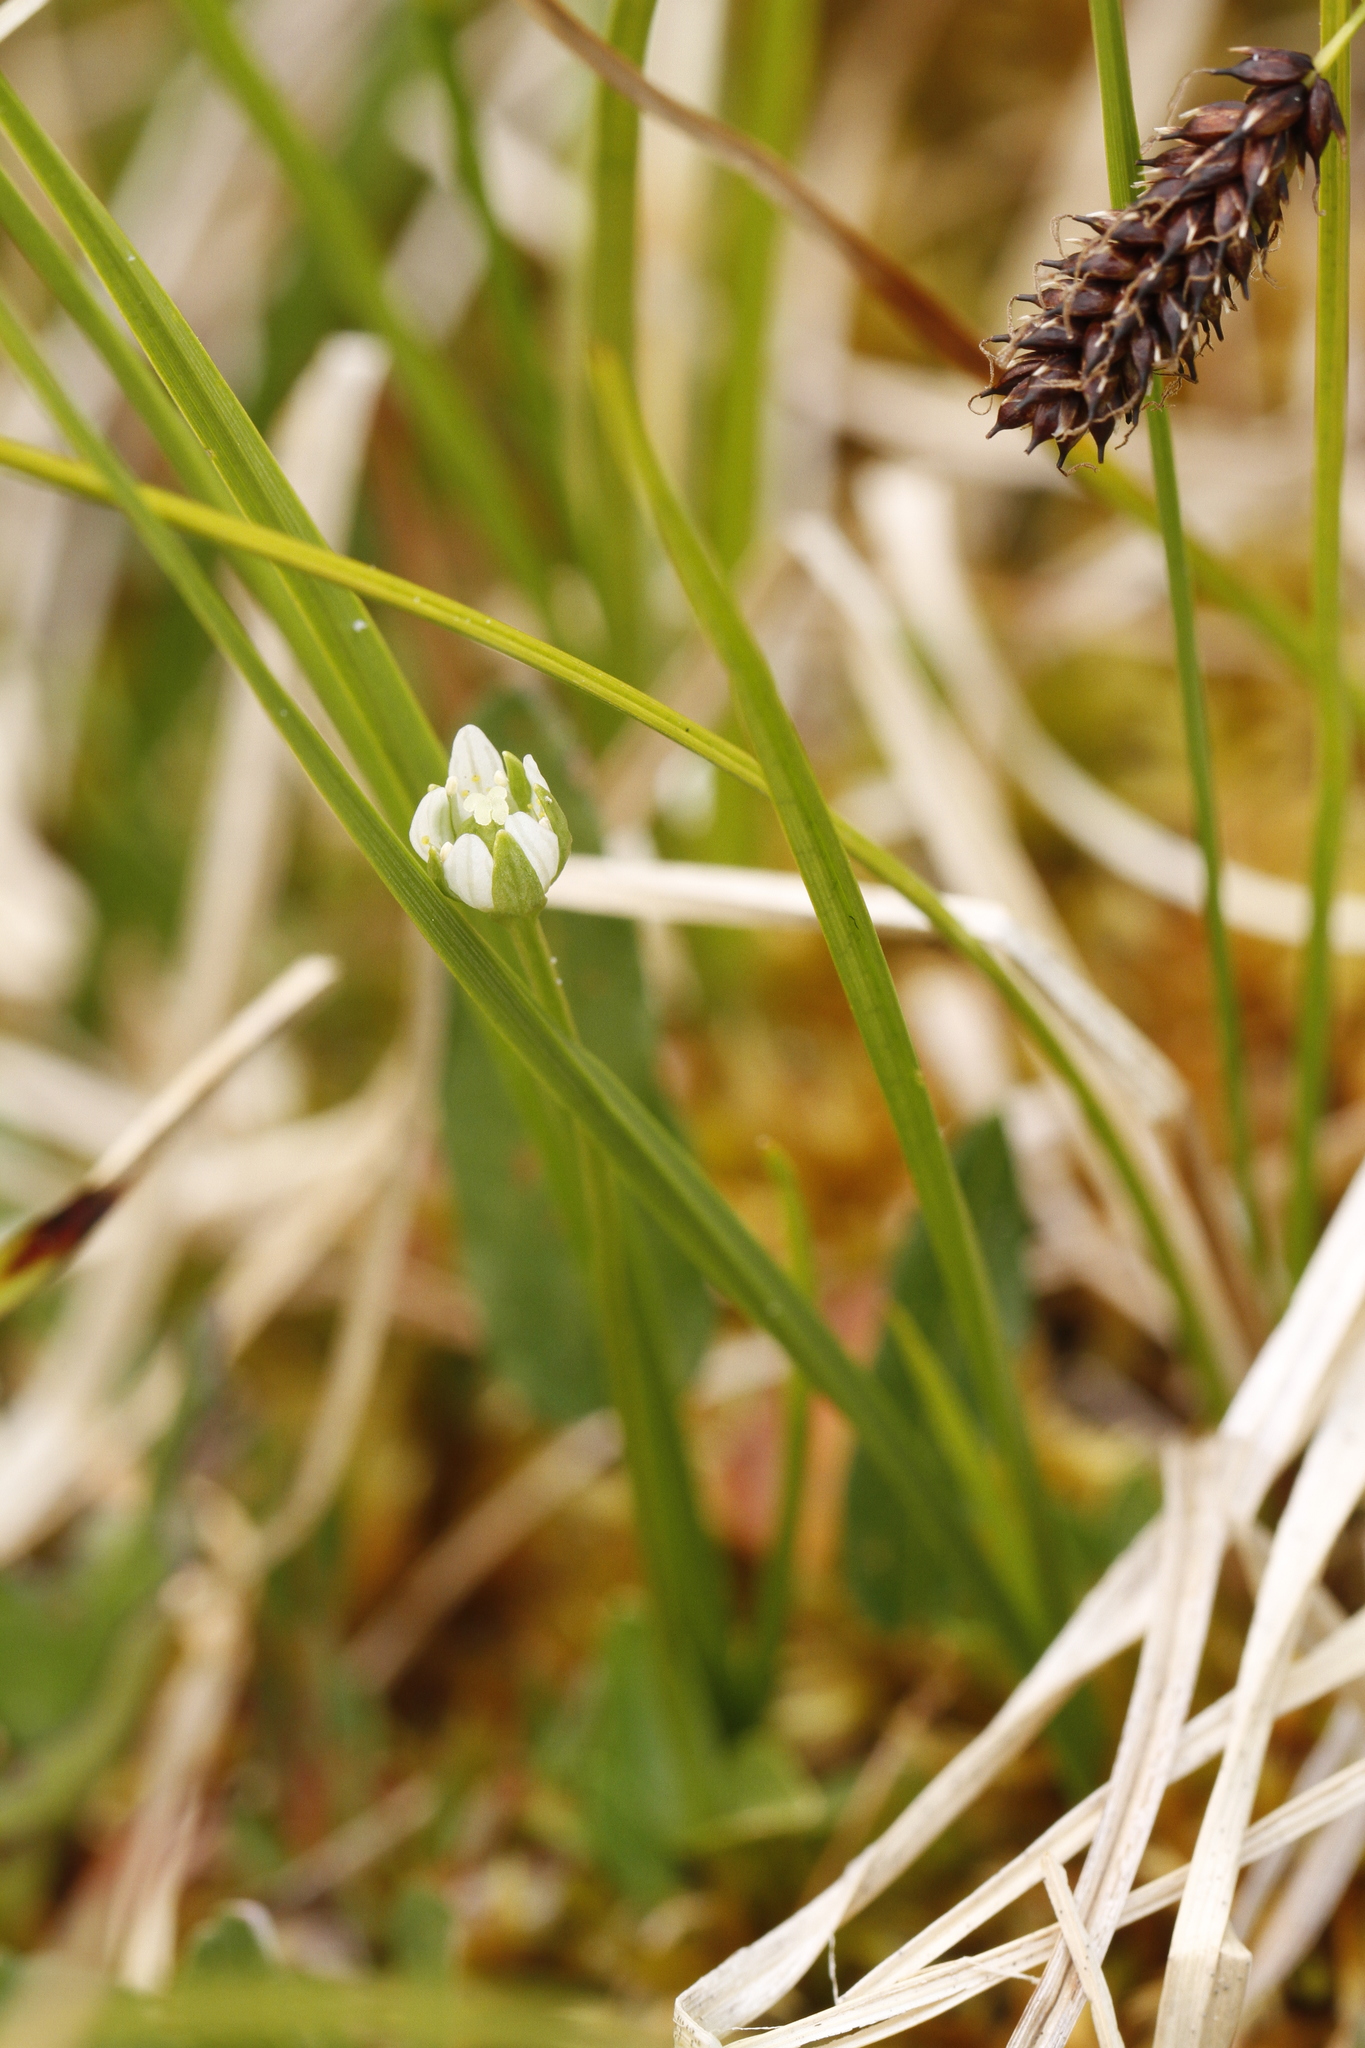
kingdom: Plantae
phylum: Tracheophyta
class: Magnoliopsida
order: Celastrales
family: Parnassiaceae
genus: Parnassia
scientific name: Parnassia kotzebuei
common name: Kotzebue's grass-of-parnassus
